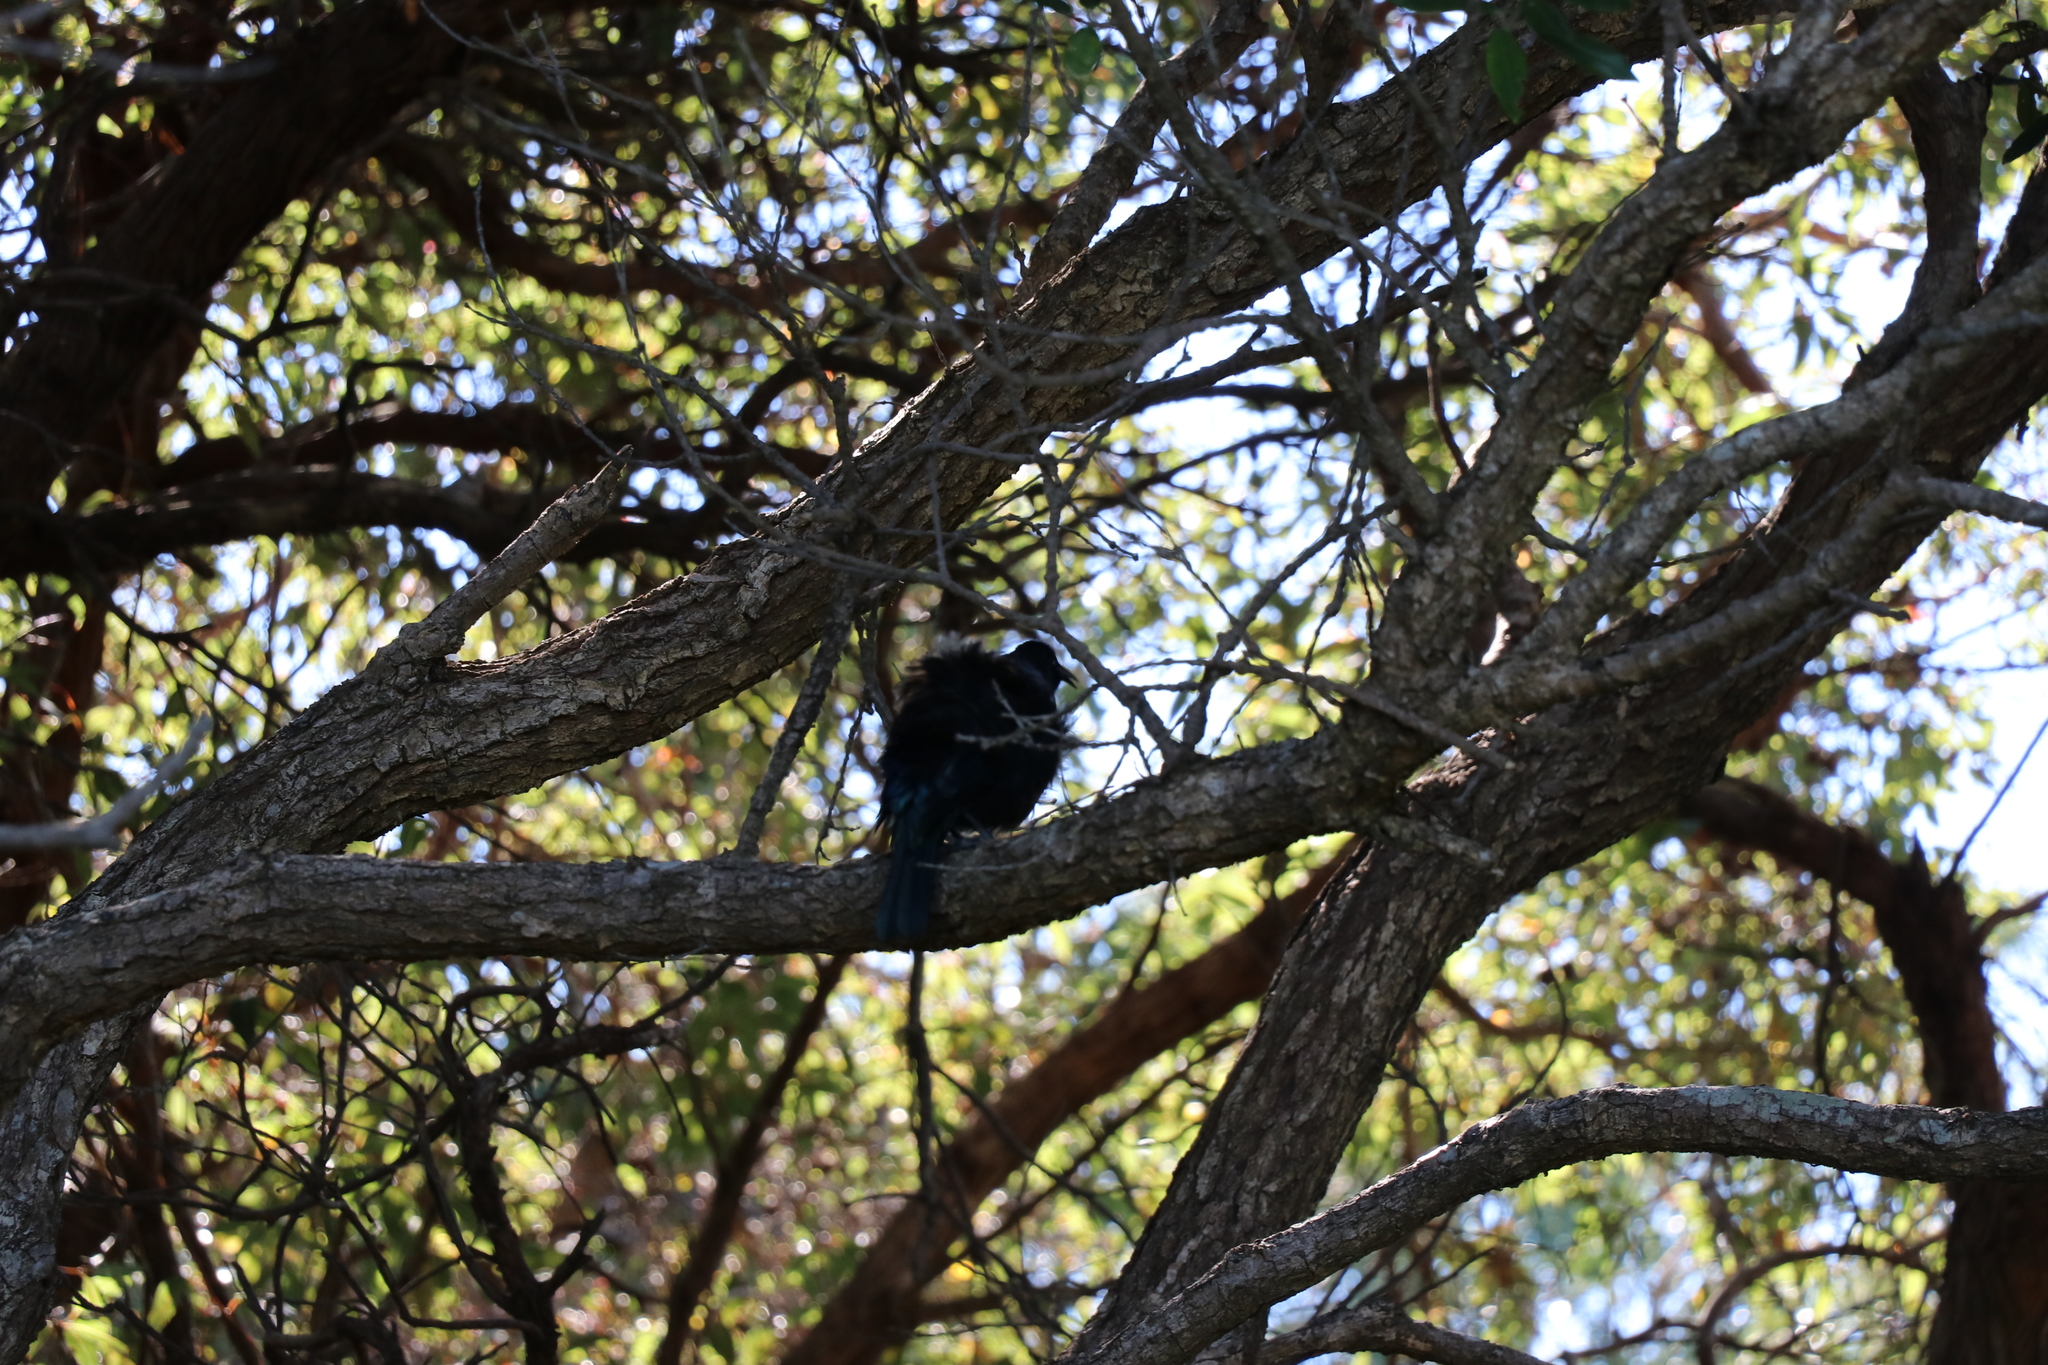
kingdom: Animalia
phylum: Chordata
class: Aves
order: Passeriformes
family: Meliphagidae
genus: Prosthemadera
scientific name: Prosthemadera novaeseelandiae
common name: Tui
